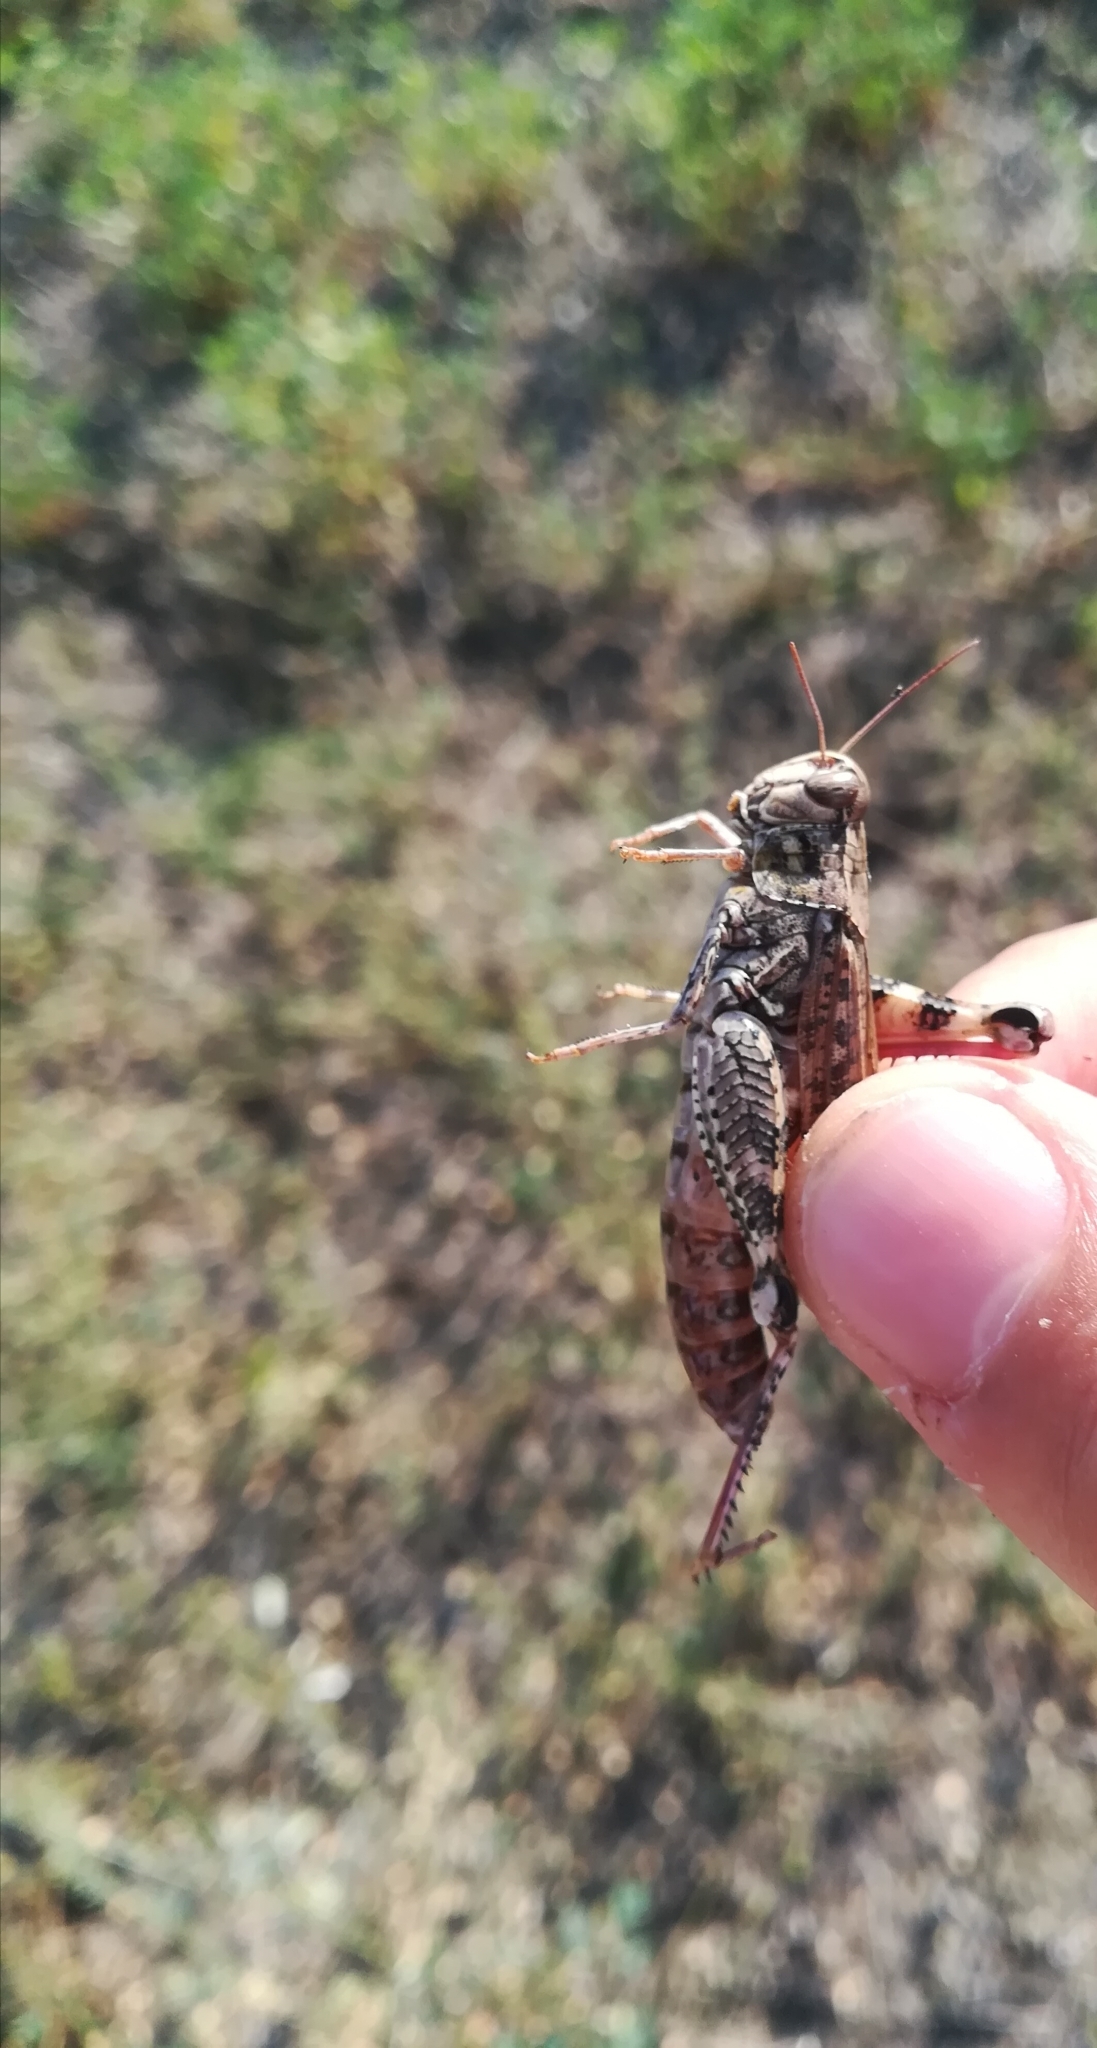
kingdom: Animalia
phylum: Arthropoda
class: Insecta
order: Orthoptera
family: Acrididae
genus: Calliptamus
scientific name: Calliptamus italicus
